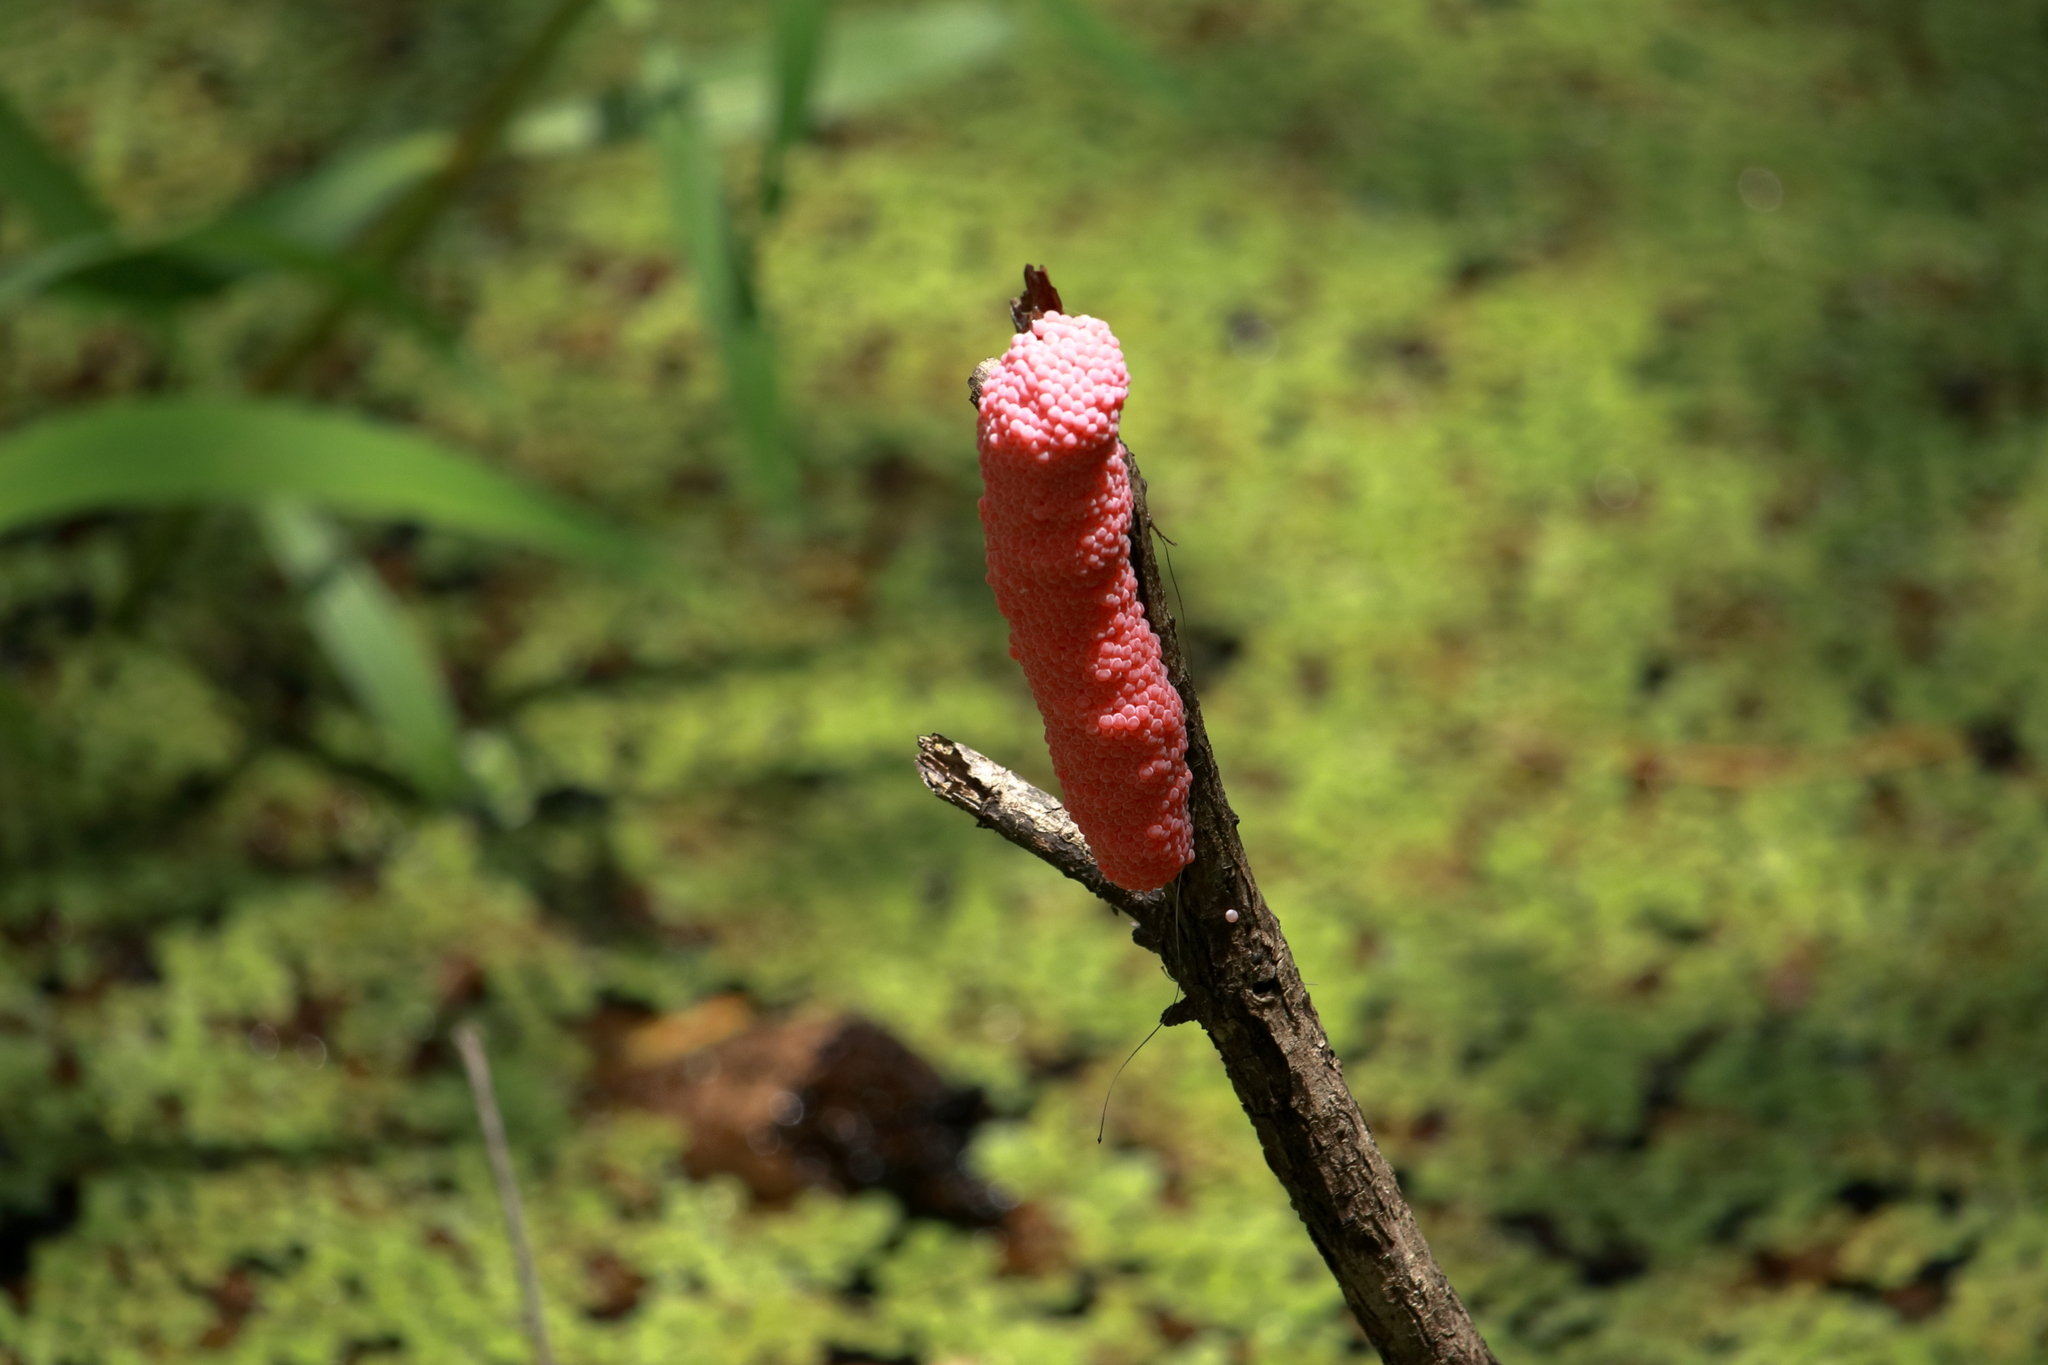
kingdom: Animalia
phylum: Mollusca
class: Gastropoda
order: Architaenioglossa
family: Ampullariidae
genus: Pomacea
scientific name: Pomacea maculata
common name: Giant applesnail
